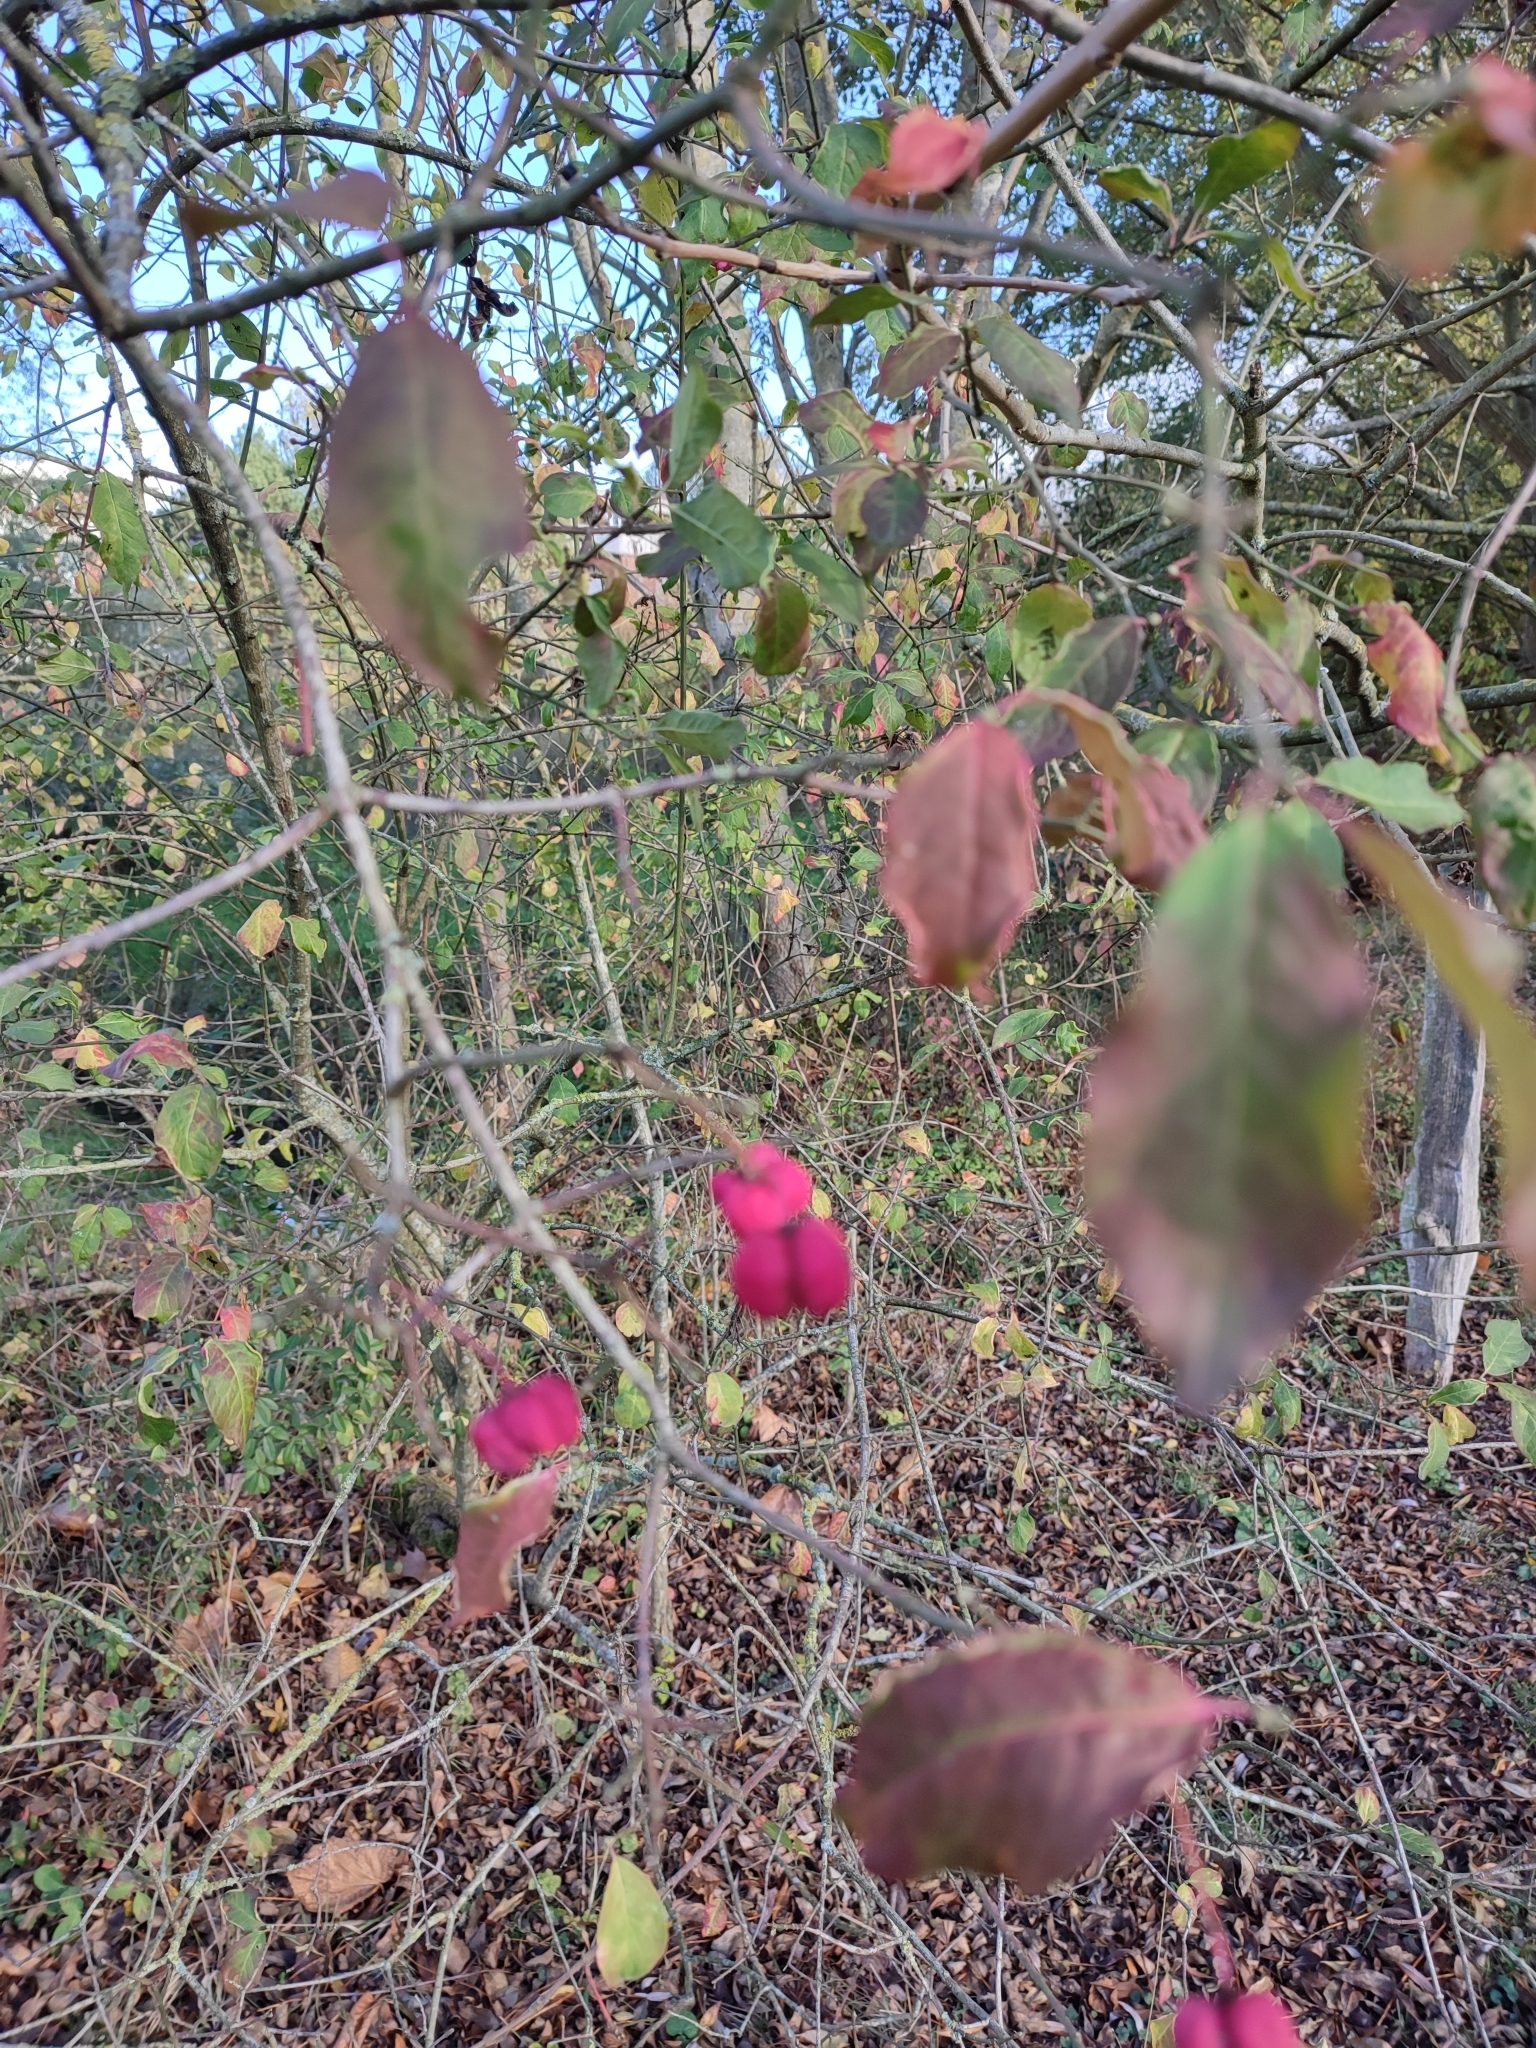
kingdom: Plantae
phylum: Tracheophyta
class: Magnoliopsida
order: Celastrales
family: Celastraceae
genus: Euonymus
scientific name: Euonymus europaeus
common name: Spindle
